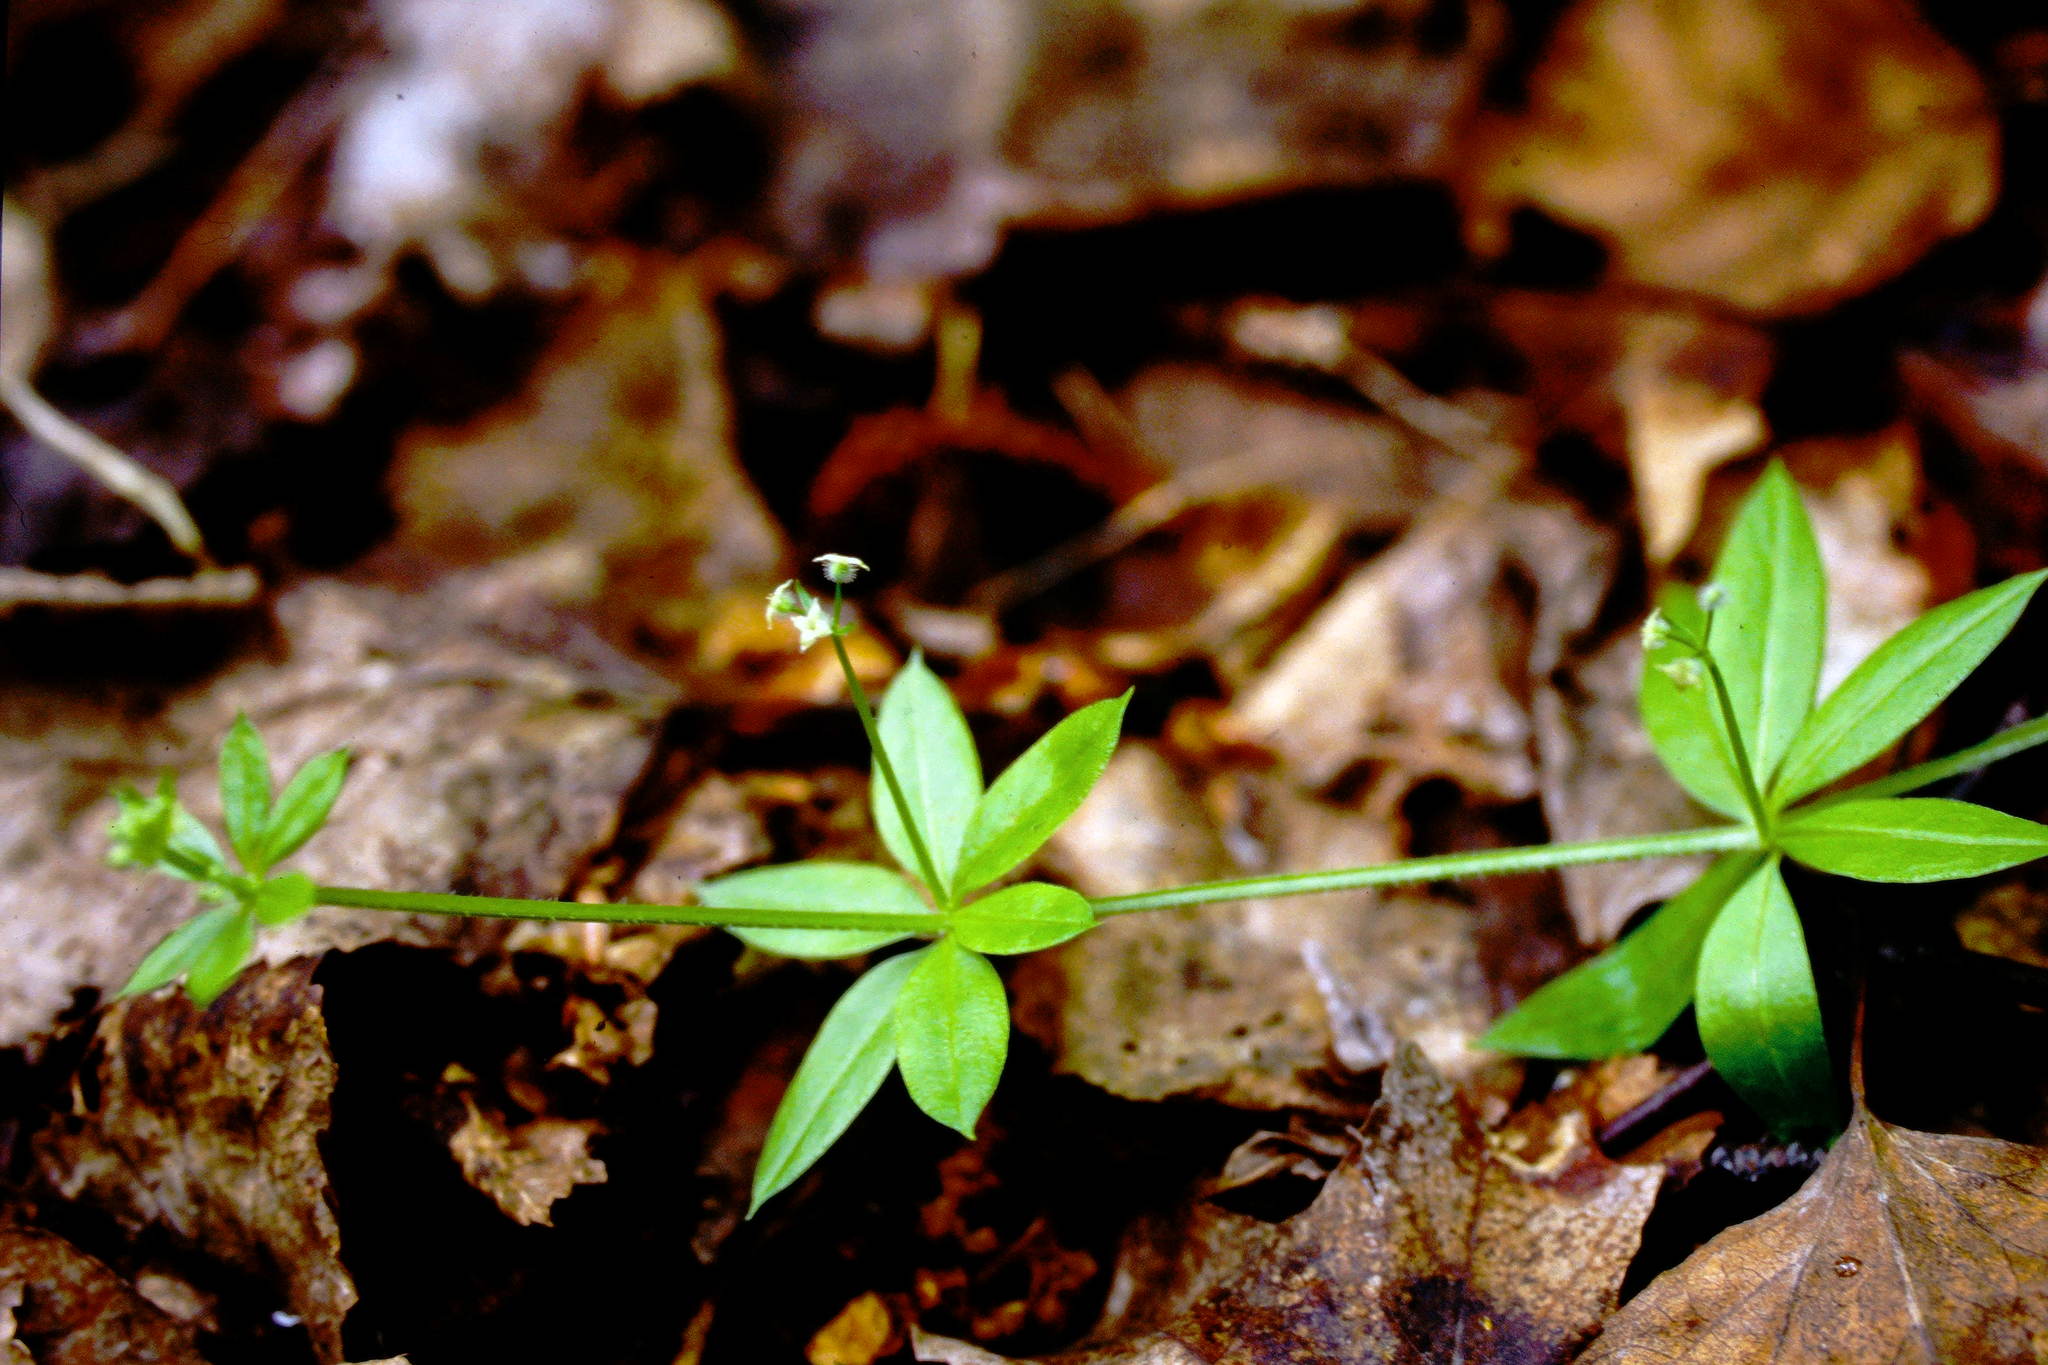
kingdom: Plantae
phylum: Tracheophyta
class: Magnoliopsida
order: Gentianales
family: Rubiaceae
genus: Galium
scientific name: Galium triflorum
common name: Fragrant bedstraw
